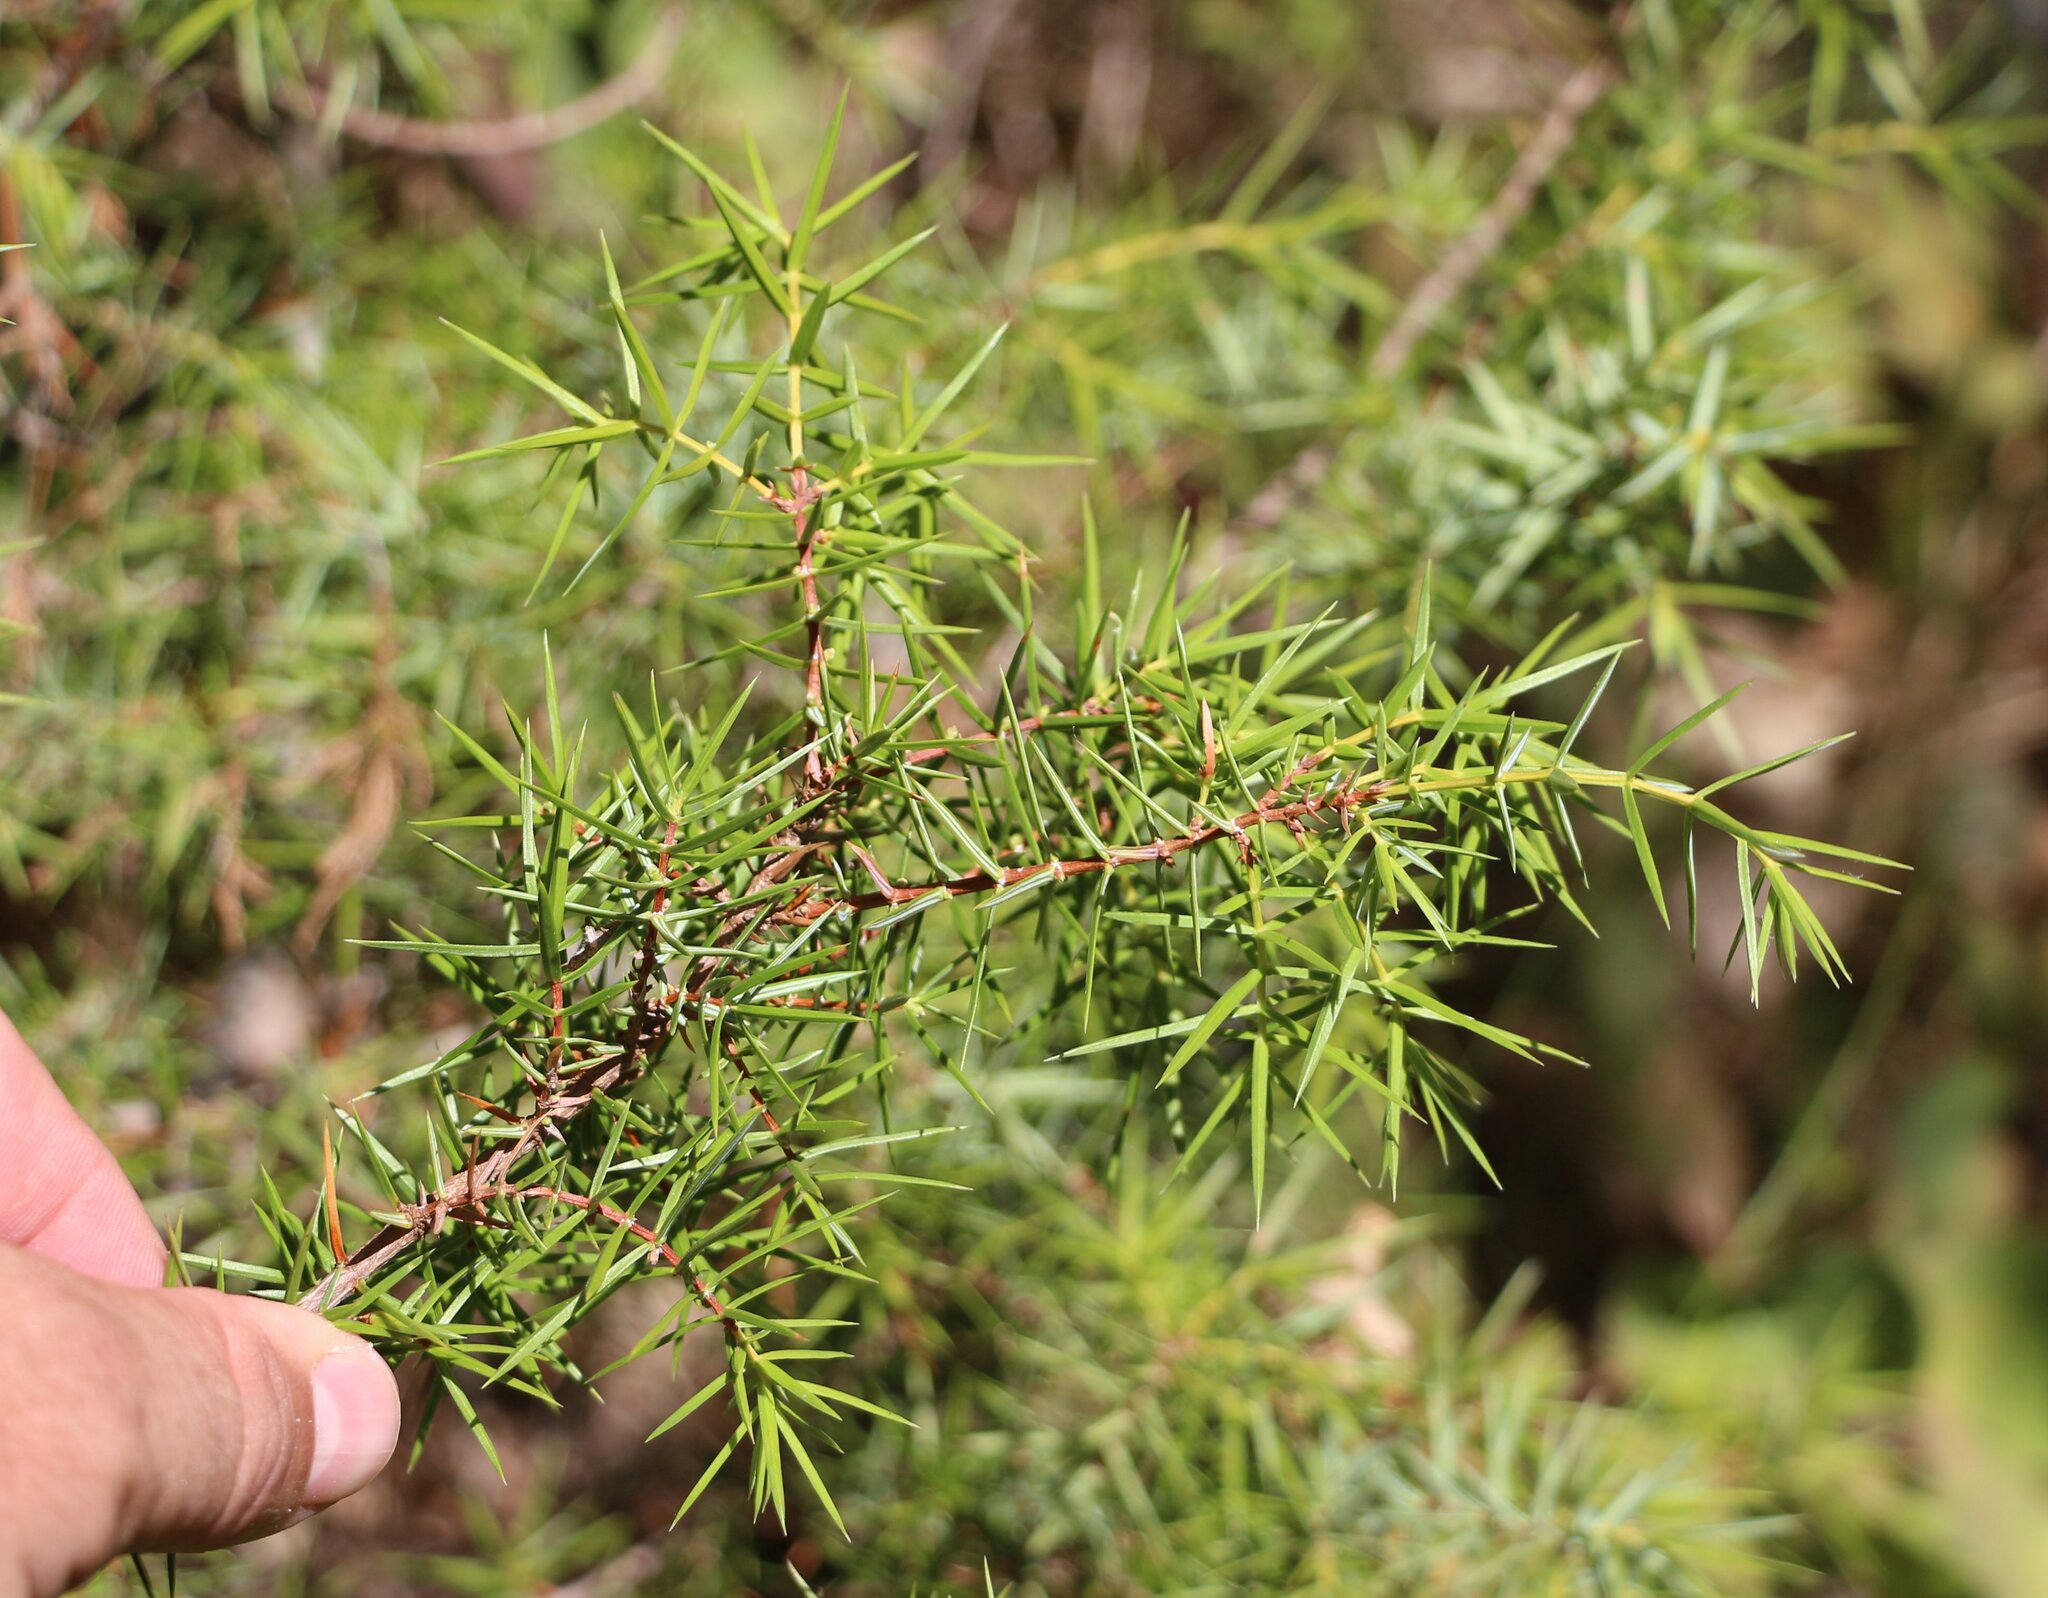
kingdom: Plantae
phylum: Tracheophyta
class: Pinopsida
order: Pinales
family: Cupressaceae
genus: Juniperus
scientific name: Juniperus oxycedrus
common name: Prickly juniper
